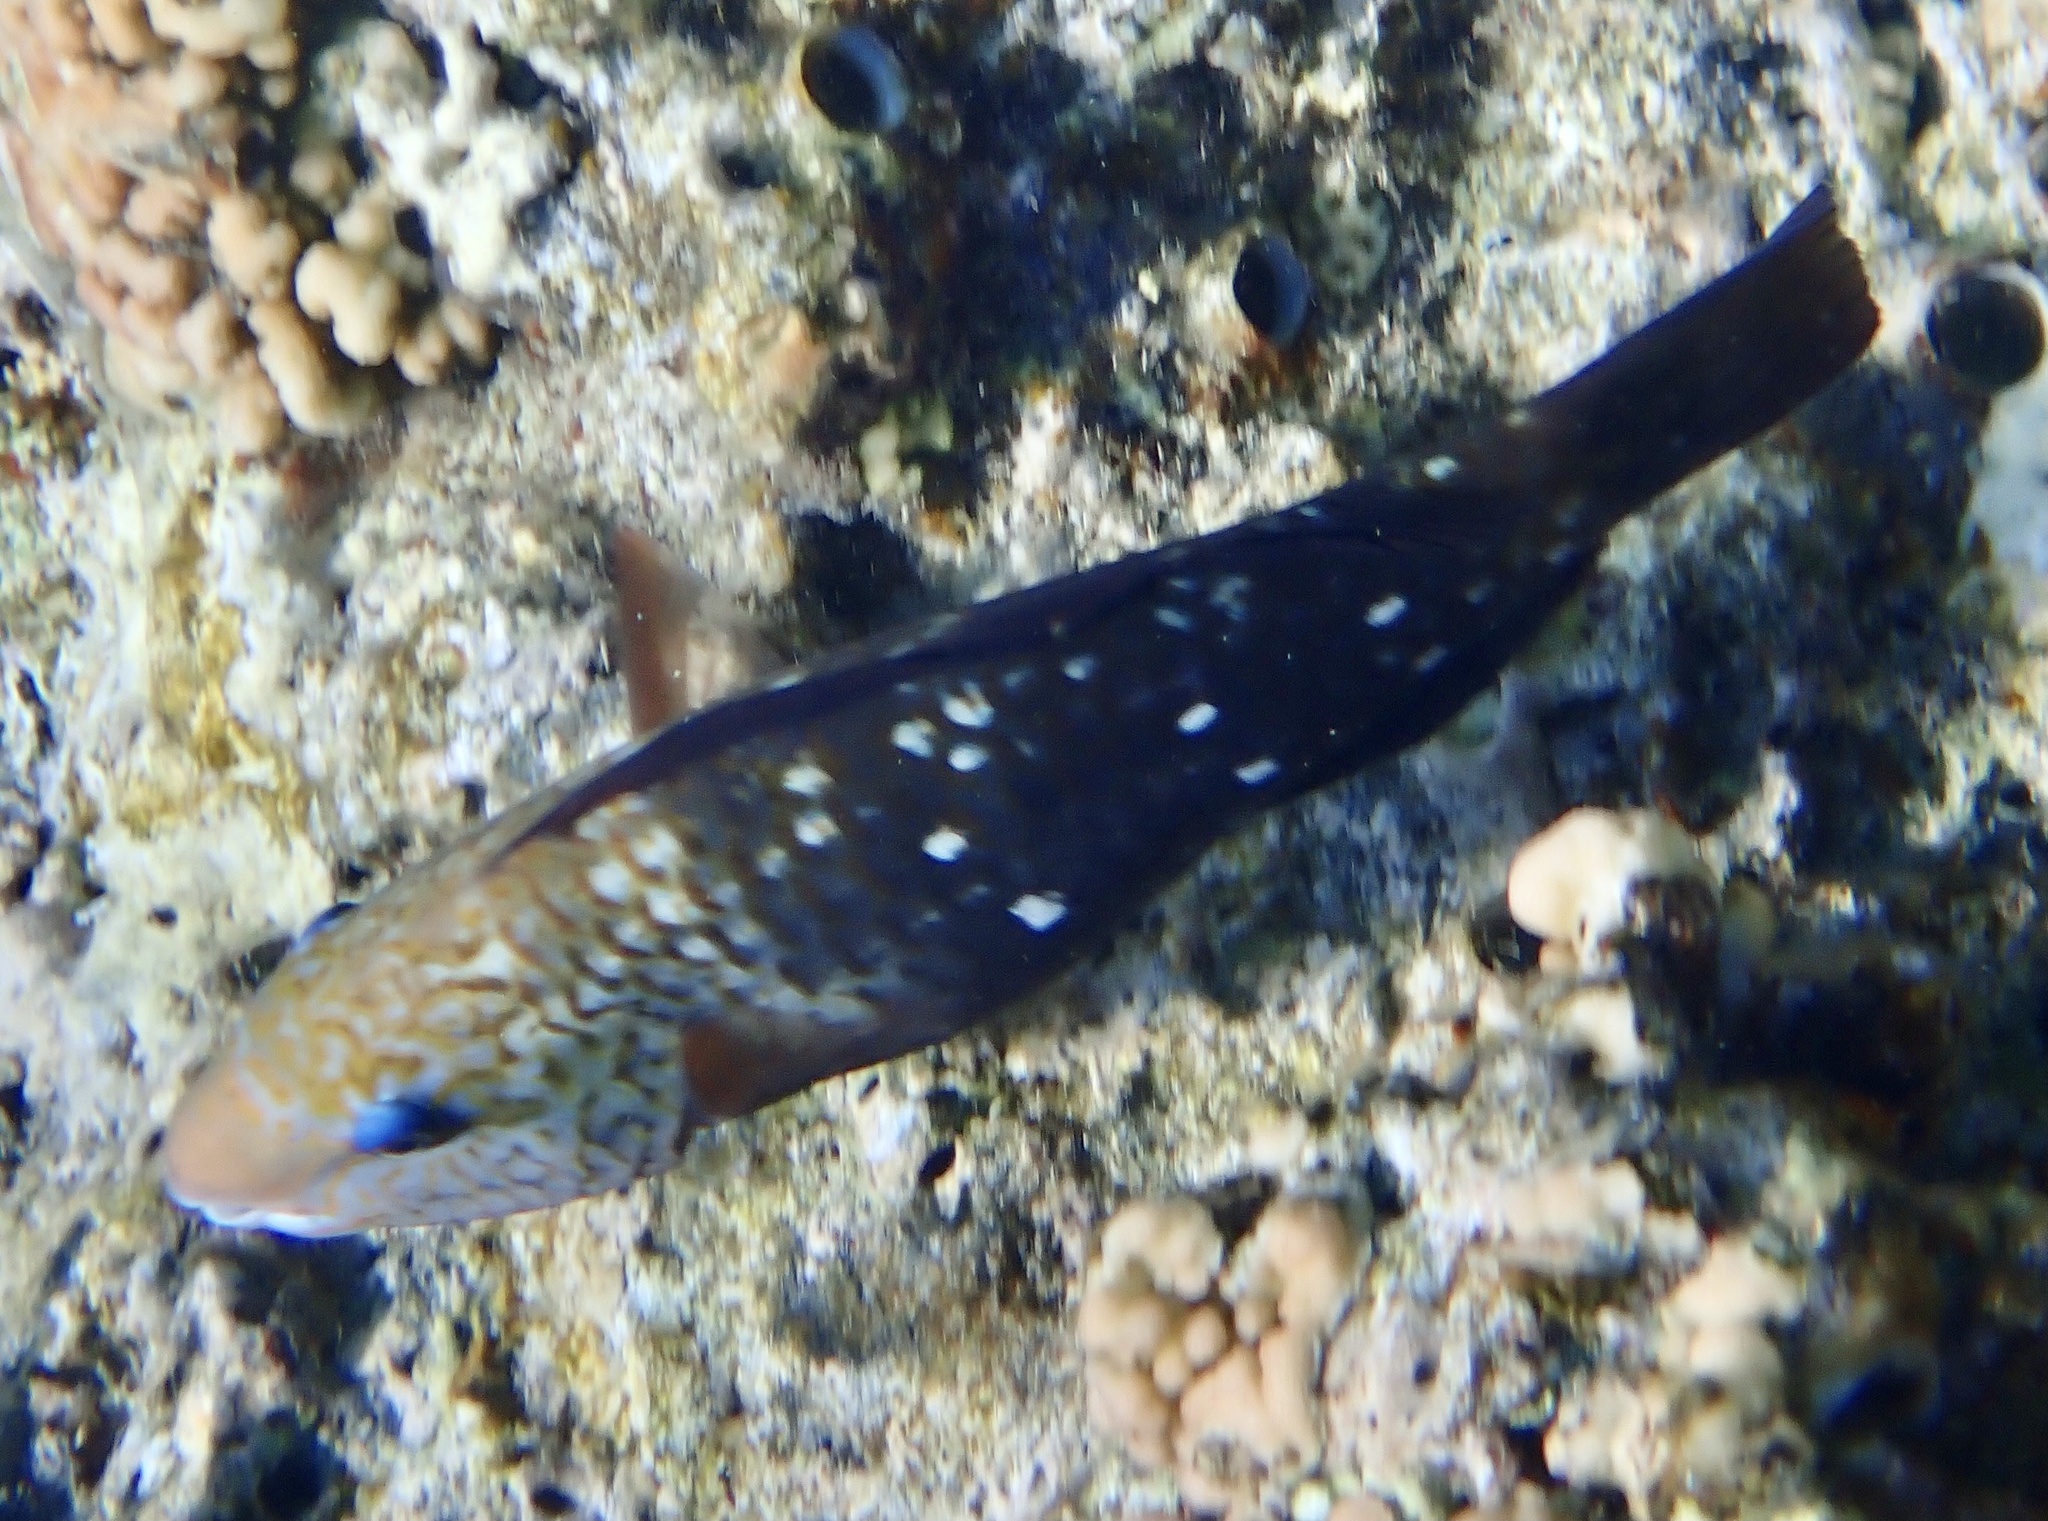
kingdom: Animalia
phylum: Chordata
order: Perciformes
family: Scaridae
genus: Chlorurus
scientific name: Chlorurus sordidus
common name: Bullethead parrotfish
